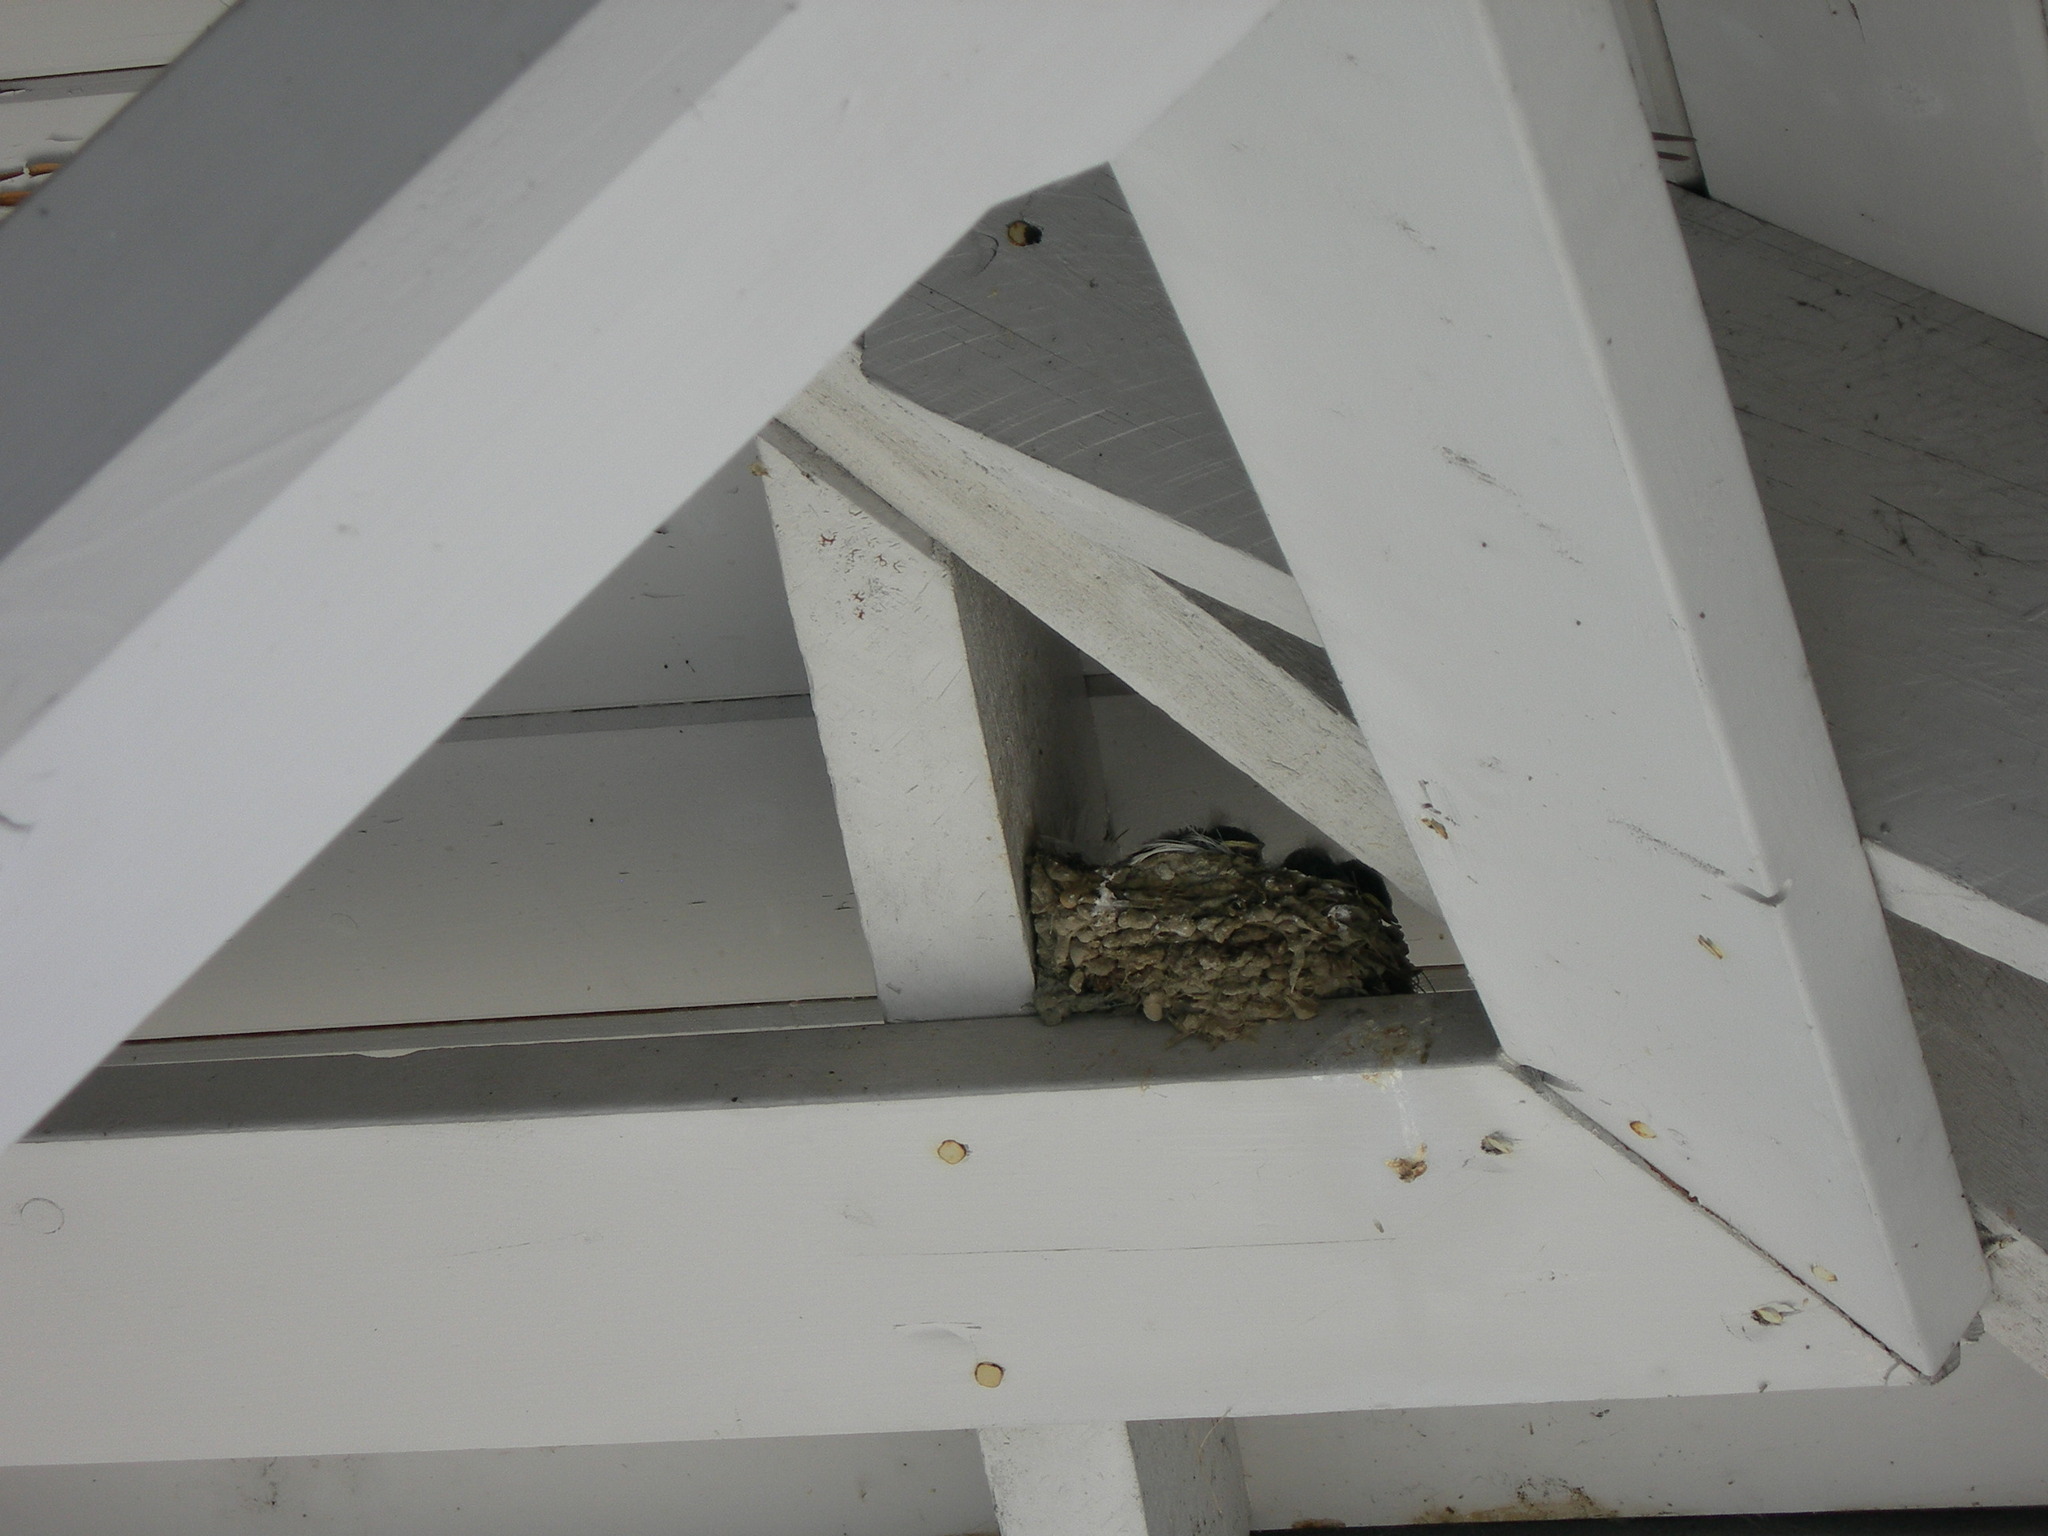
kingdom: Animalia
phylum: Chordata
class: Aves
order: Passeriformes
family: Hirundinidae
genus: Hirundo
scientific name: Hirundo rustica
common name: Barn swallow
